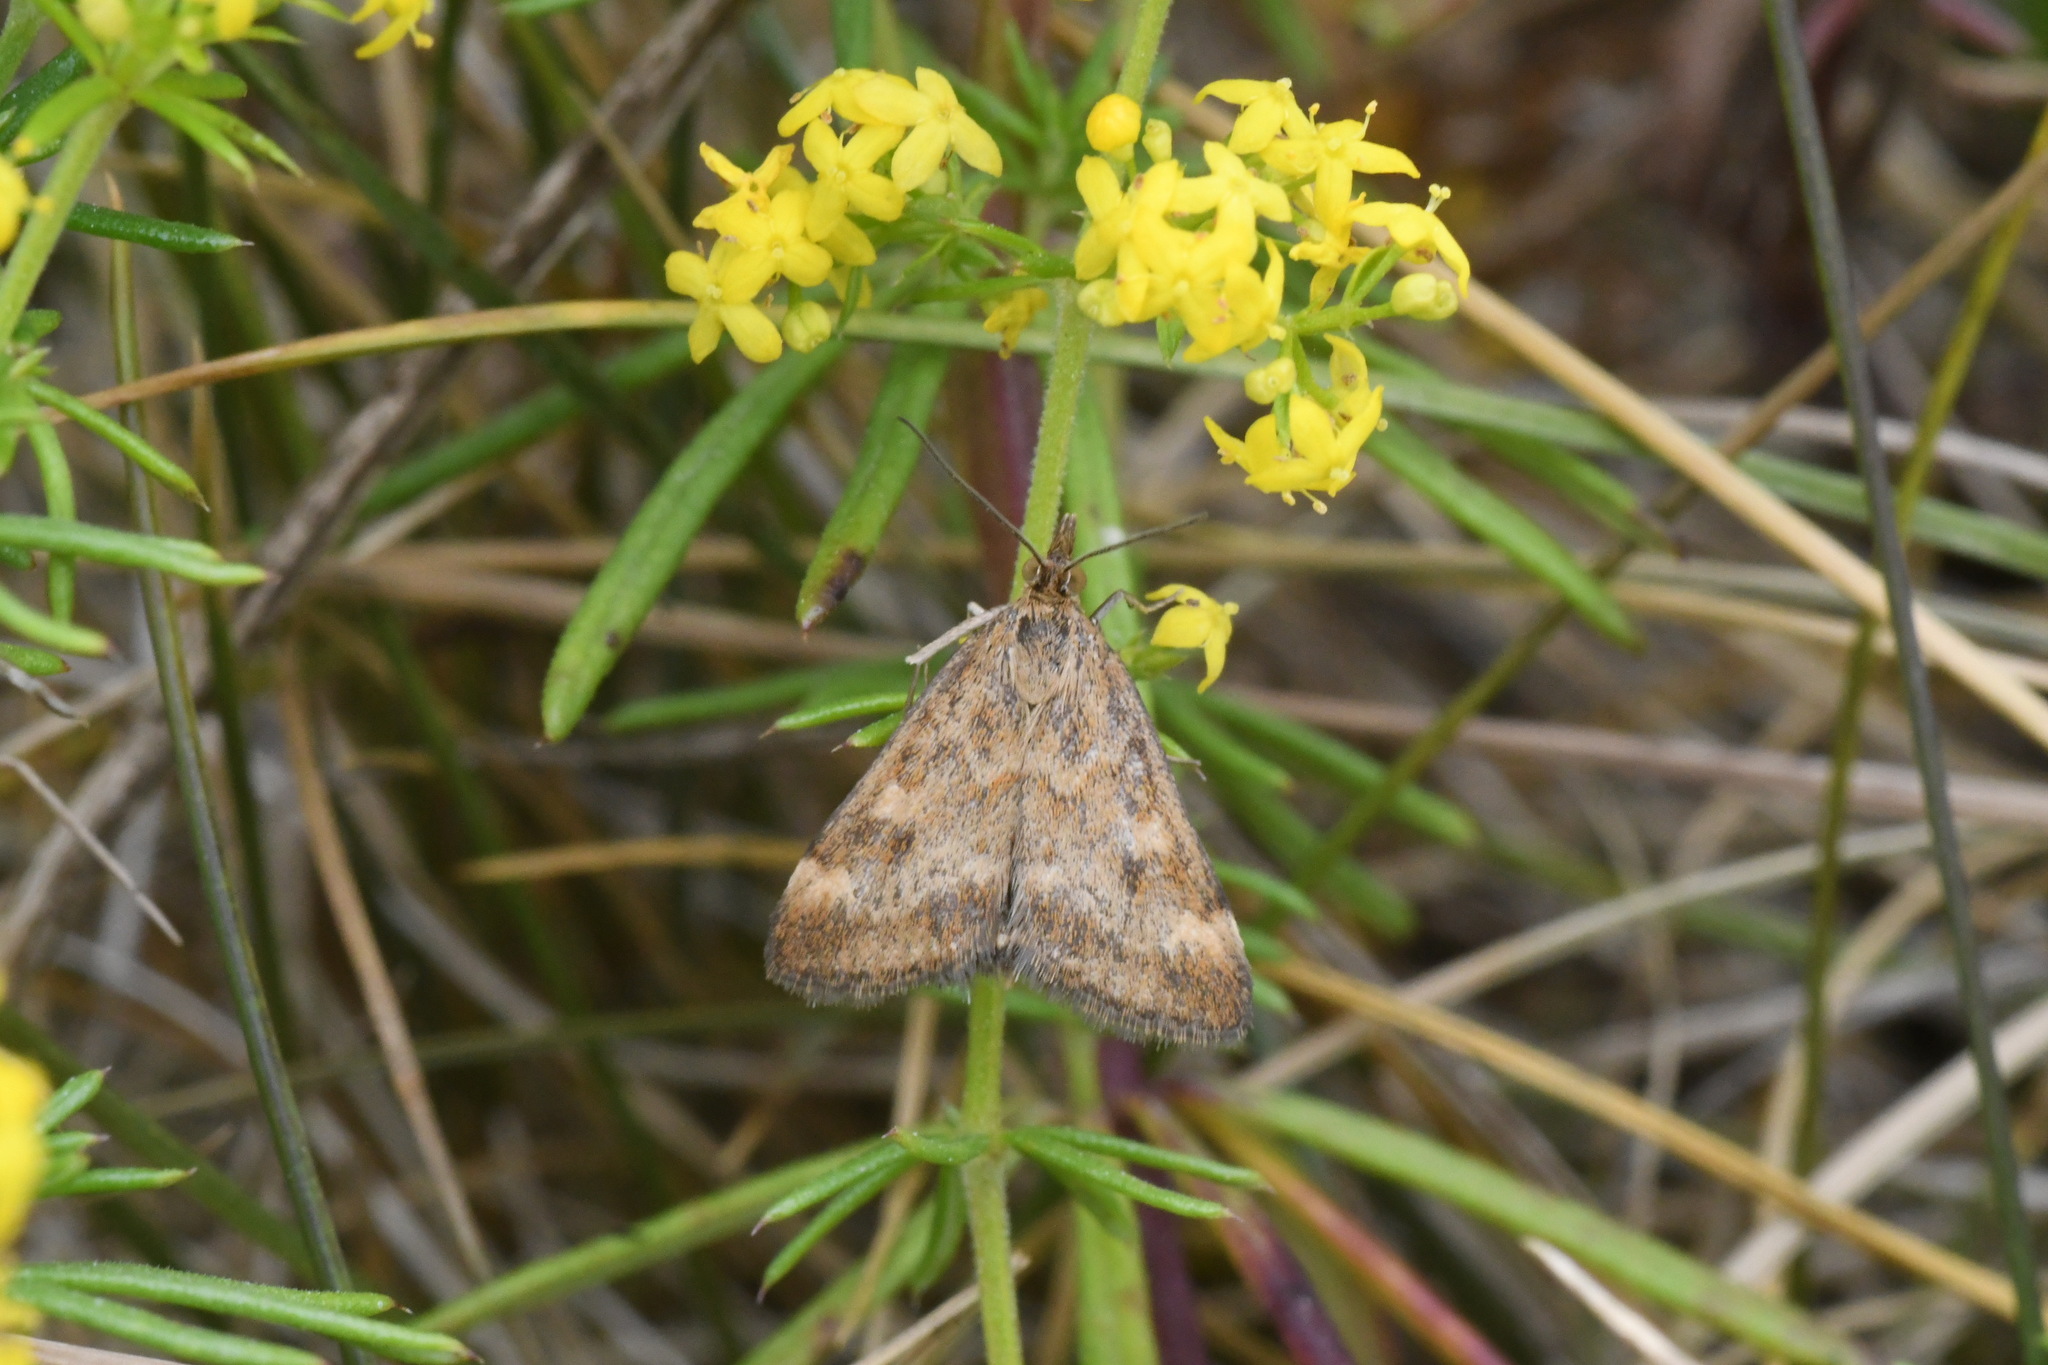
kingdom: Animalia
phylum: Arthropoda
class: Insecta
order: Lepidoptera
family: Crambidae
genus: Pyrausta
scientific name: Pyrausta despicata
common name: Straw-barred pearl
